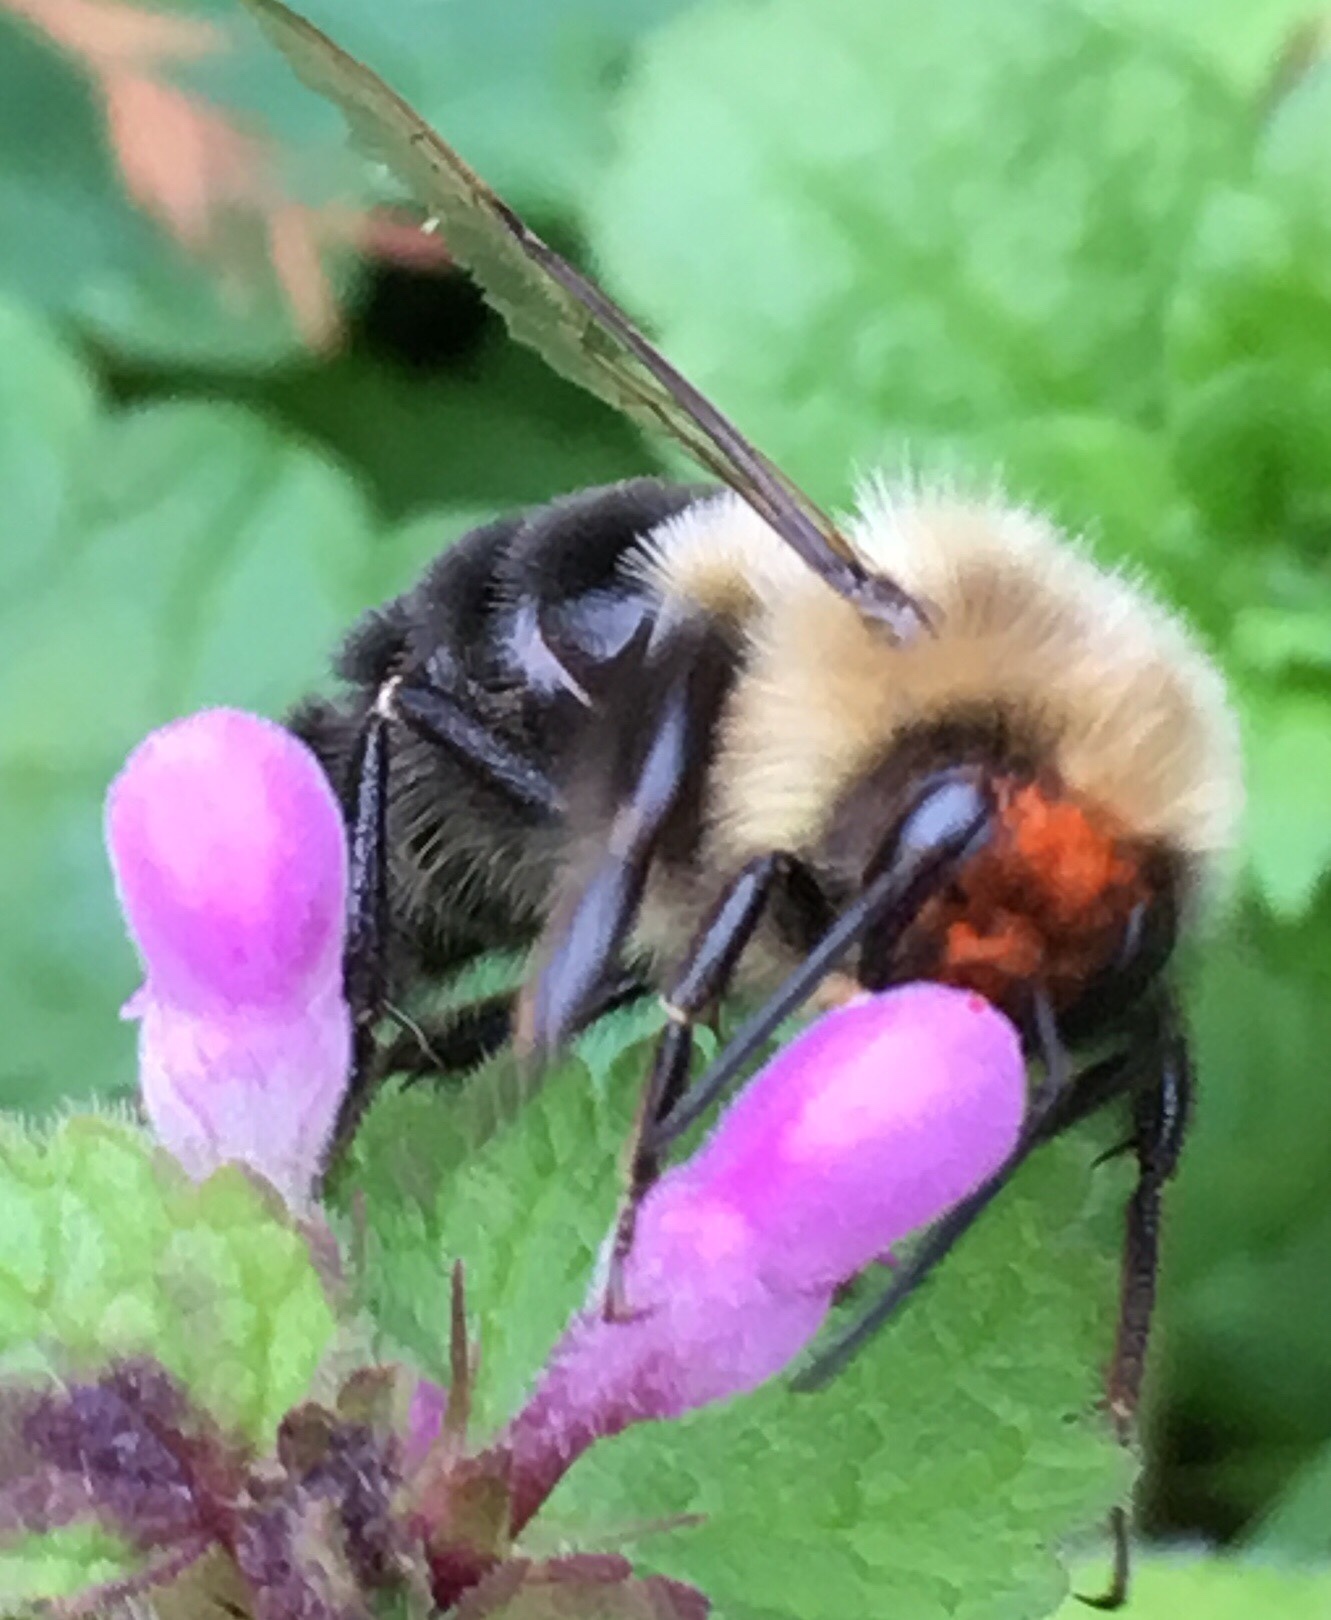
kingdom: Animalia
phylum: Arthropoda
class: Insecta
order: Hymenoptera
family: Apidae
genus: Bombus
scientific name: Bombus impatiens
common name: Common eastern bumble bee
